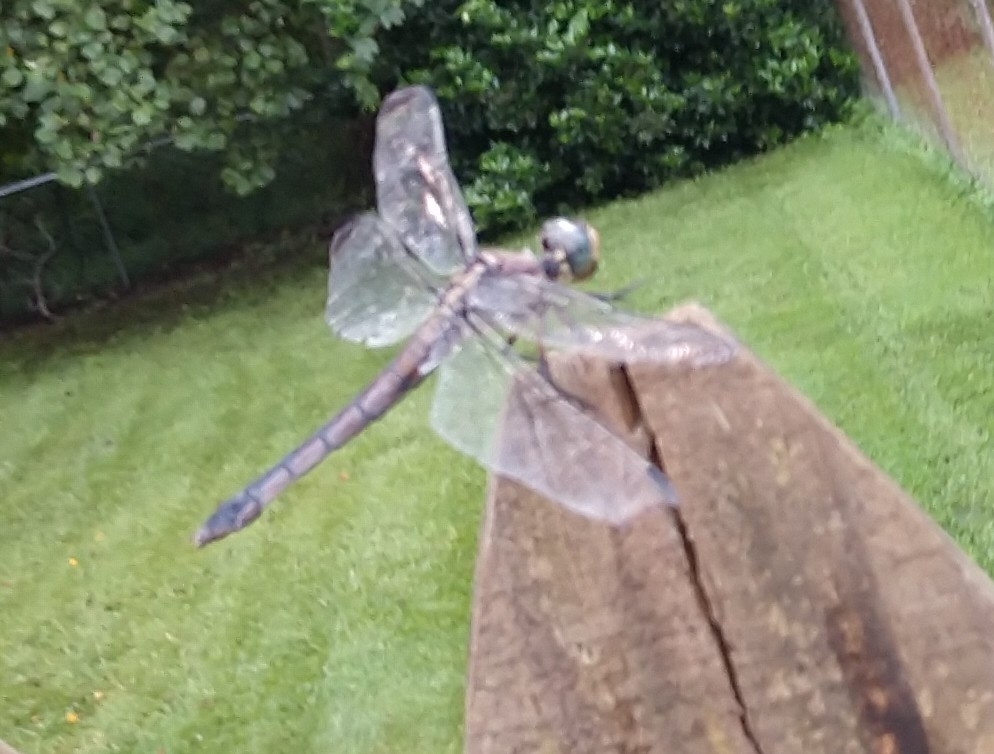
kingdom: Animalia
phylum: Arthropoda
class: Insecta
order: Odonata
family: Libellulidae
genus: Libellula
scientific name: Libellula vibrans
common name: Great blue skimmer
